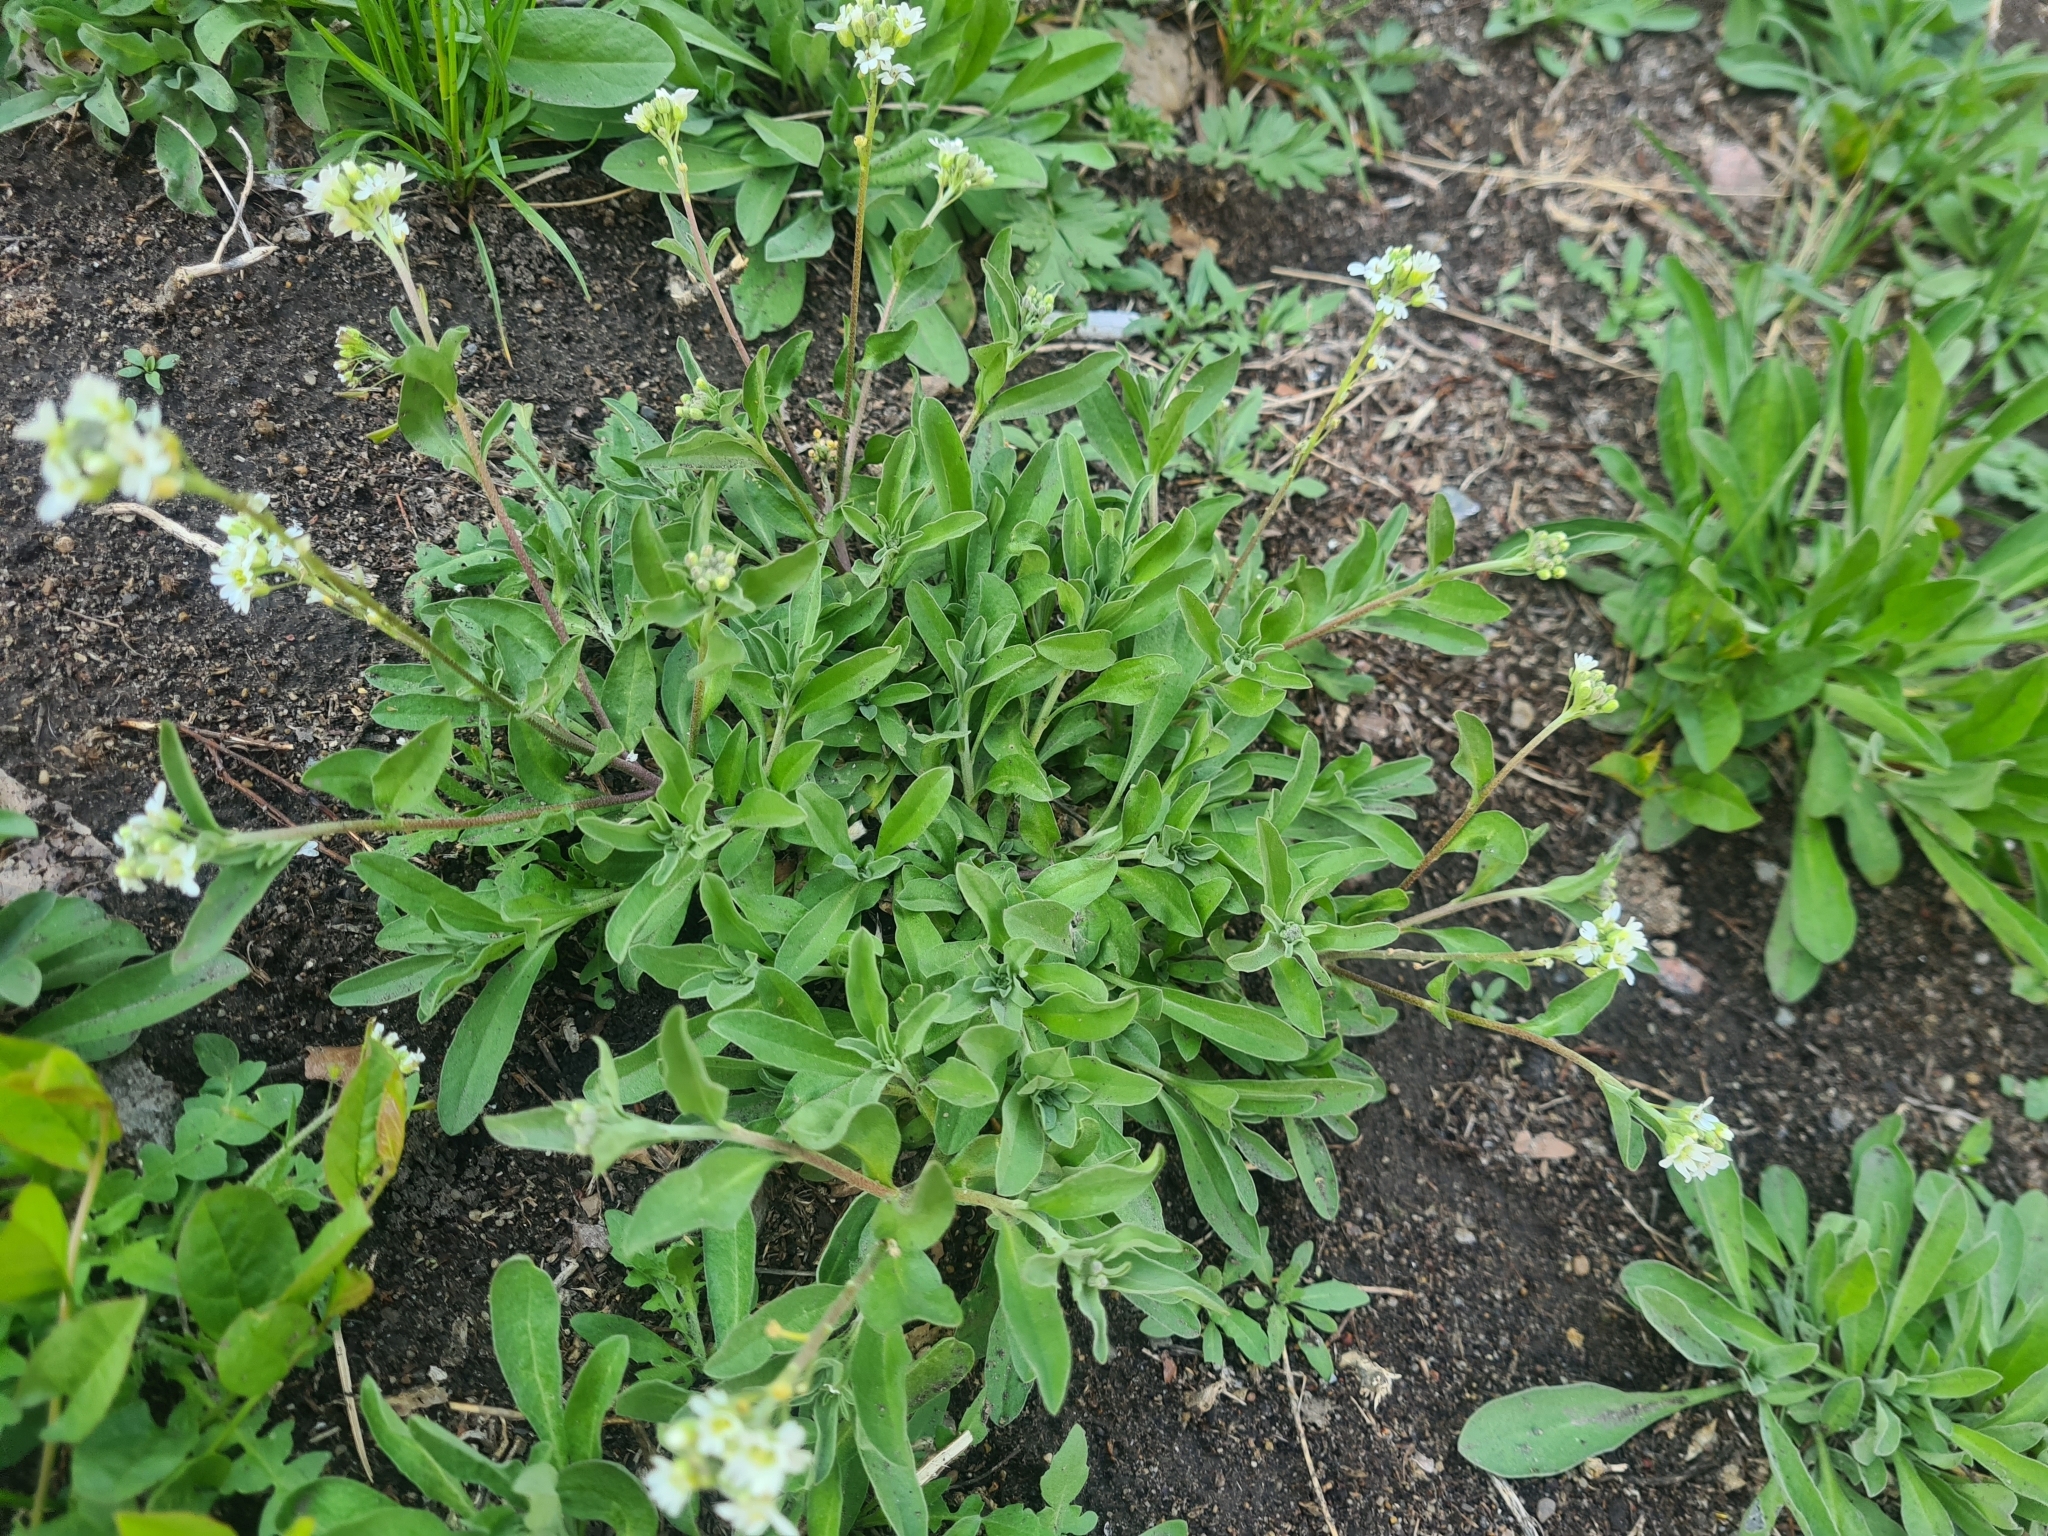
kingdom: Plantae
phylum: Tracheophyta
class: Magnoliopsida
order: Brassicales
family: Brassicaceae
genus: Berteroa
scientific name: Berteroa incana
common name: Hoary alison
